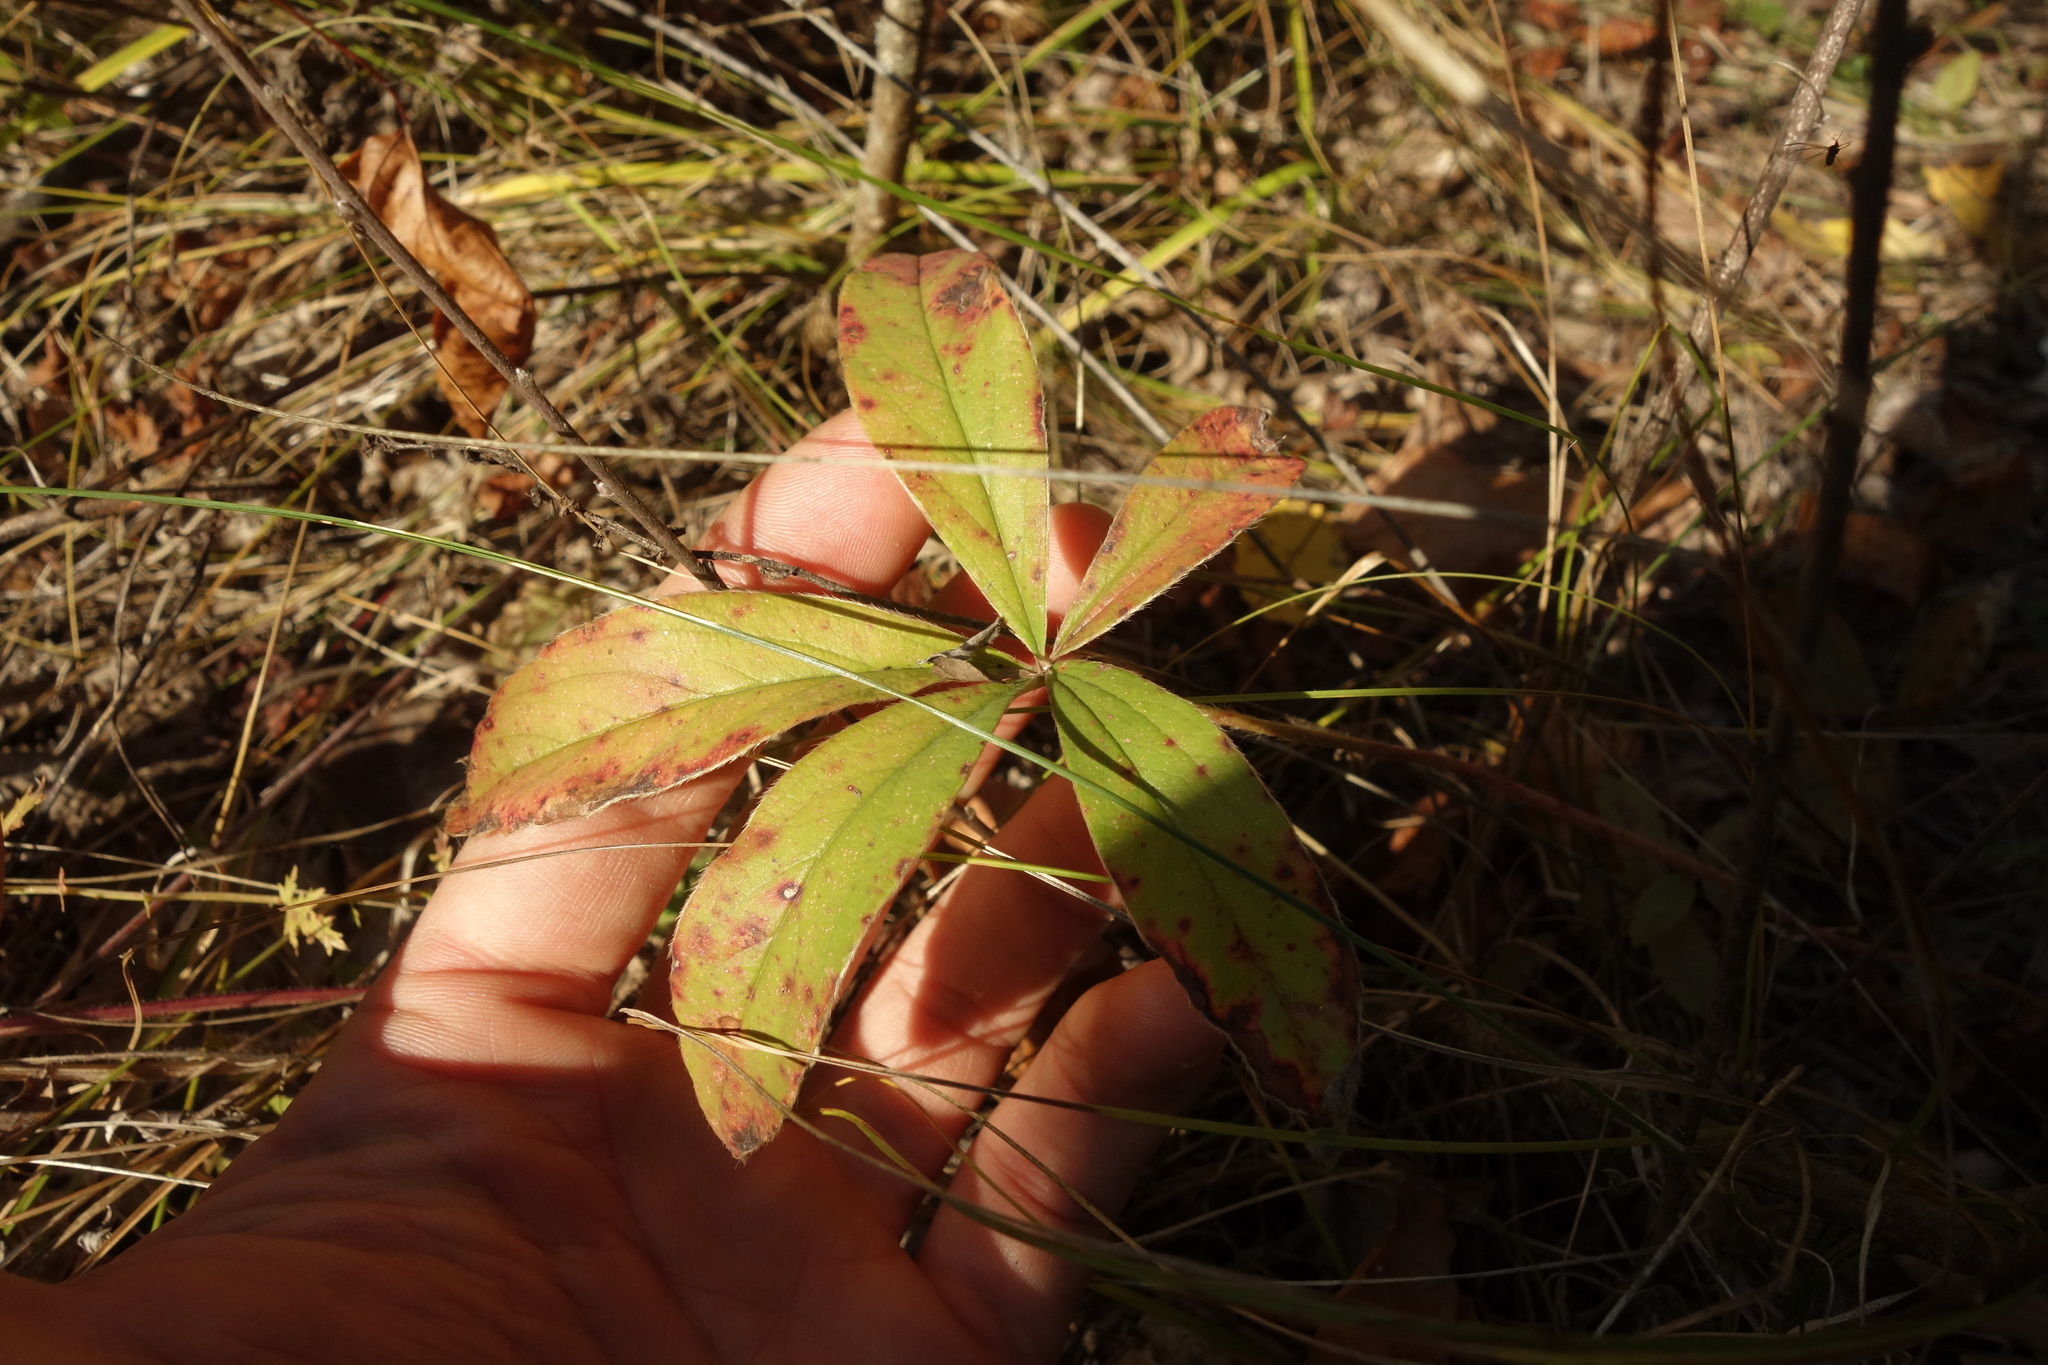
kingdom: Plantae
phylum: Tracheophyta
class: Magnoliopsida
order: Rosales
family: Rosaceae
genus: Potentilla
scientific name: Potentilla alba
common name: White cinquefoil
